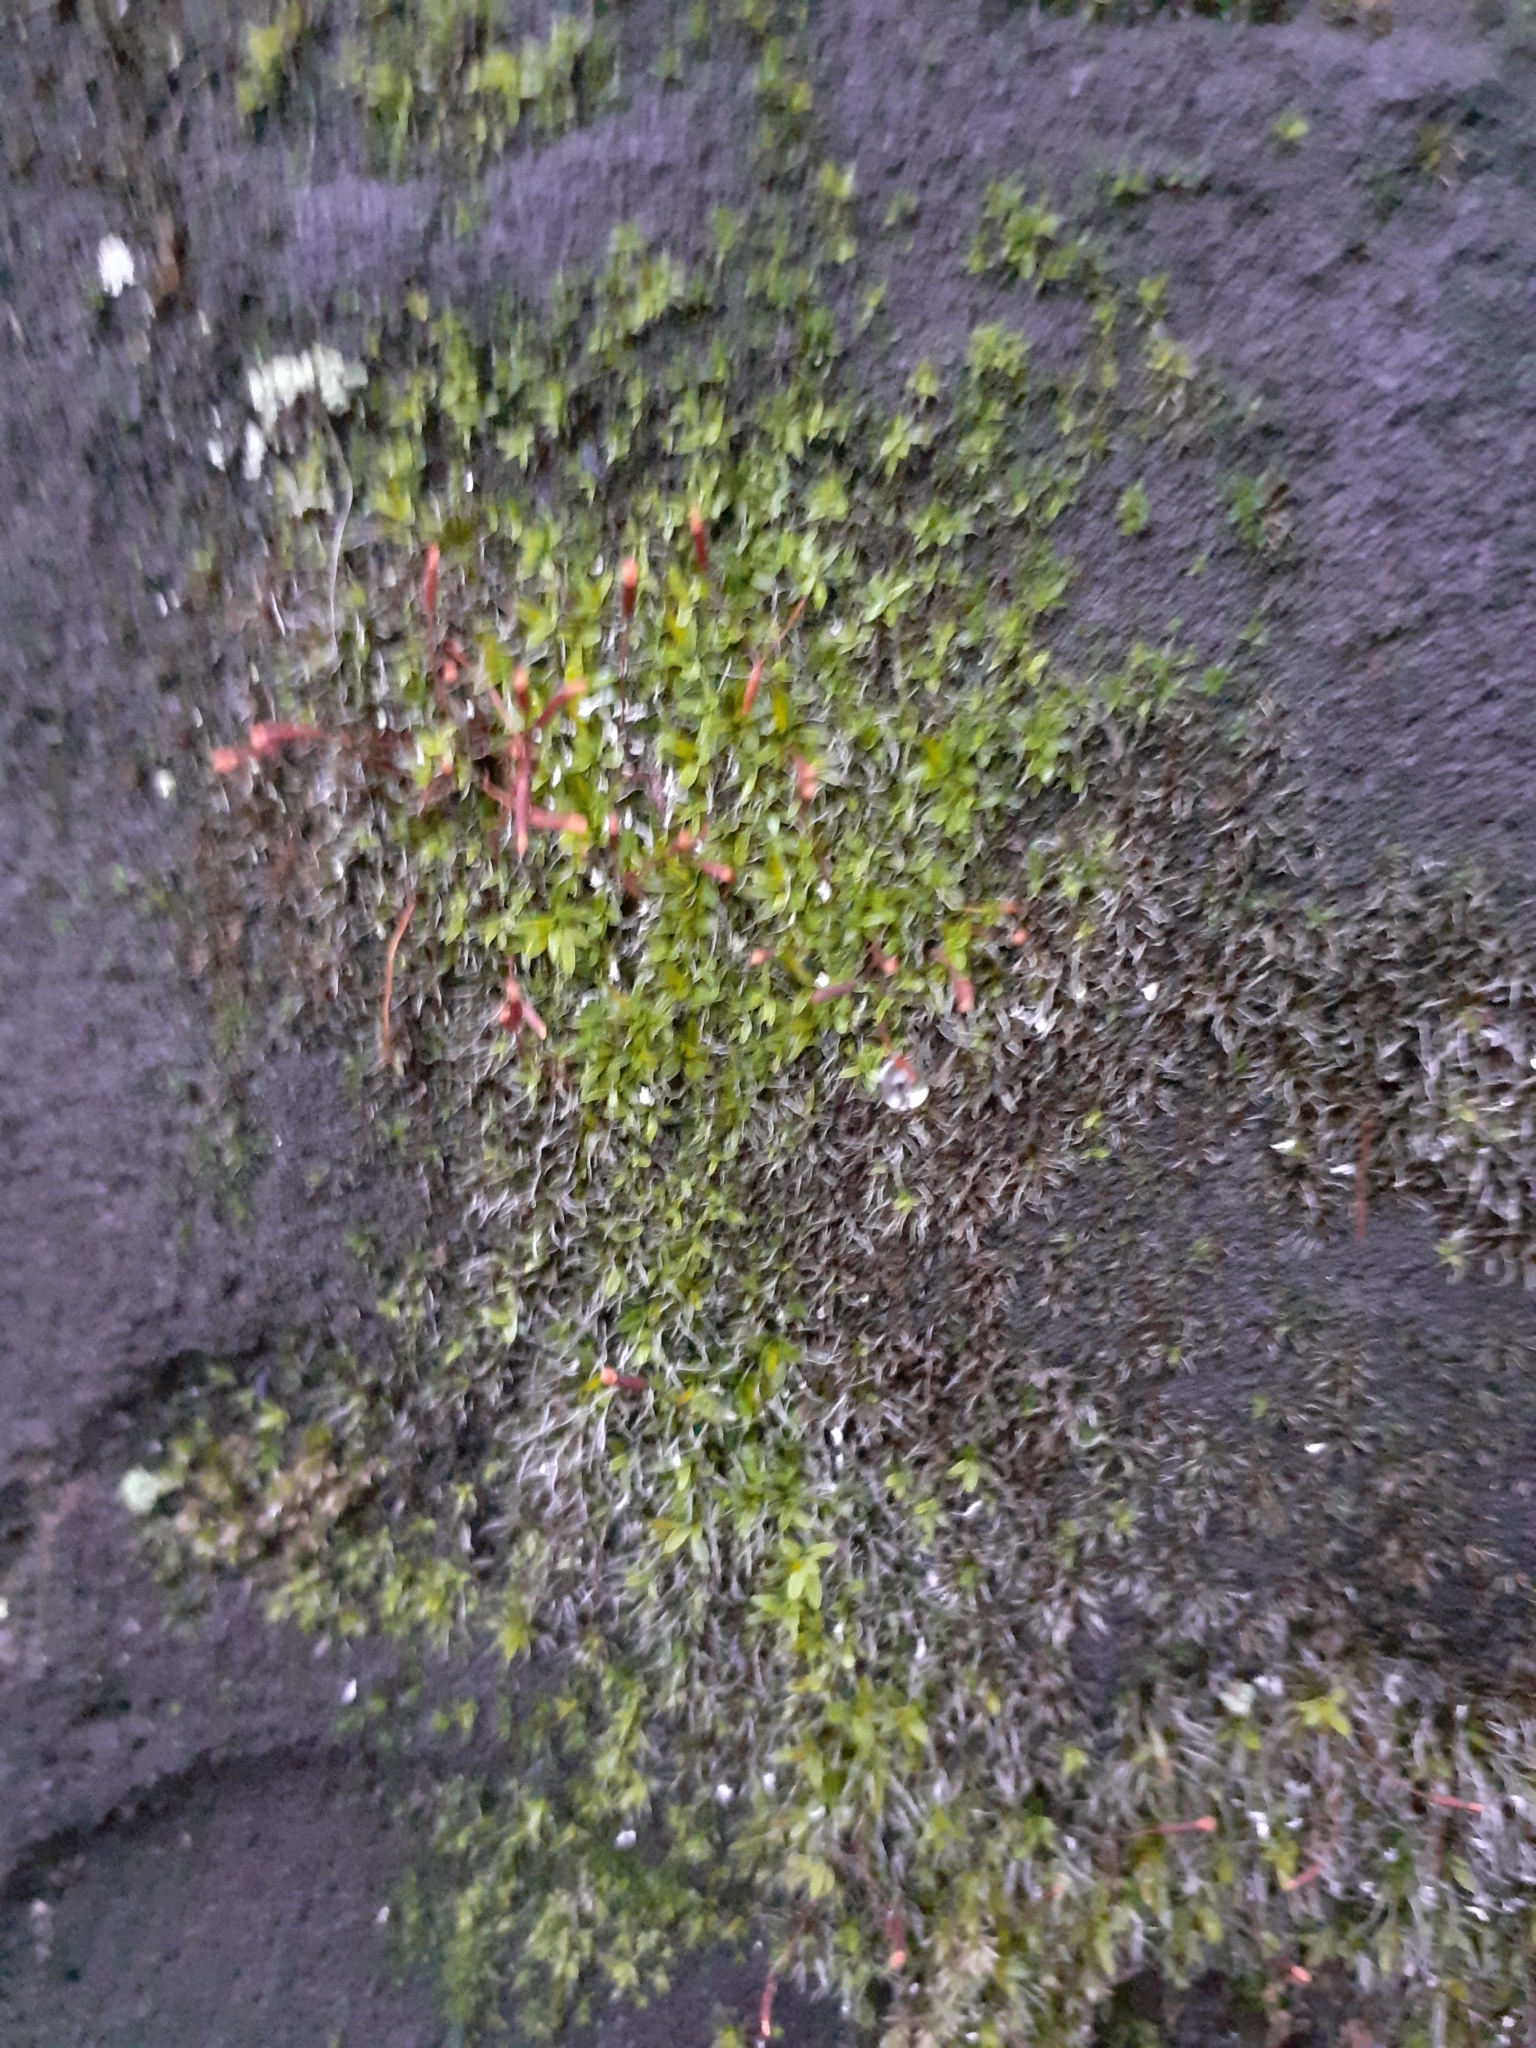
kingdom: Plantae
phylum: Bryophyta
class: Bryopsida
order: Pottiales
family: Pottiaceae
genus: Tortula
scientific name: Tortula muralis
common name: Wall screw-moss
